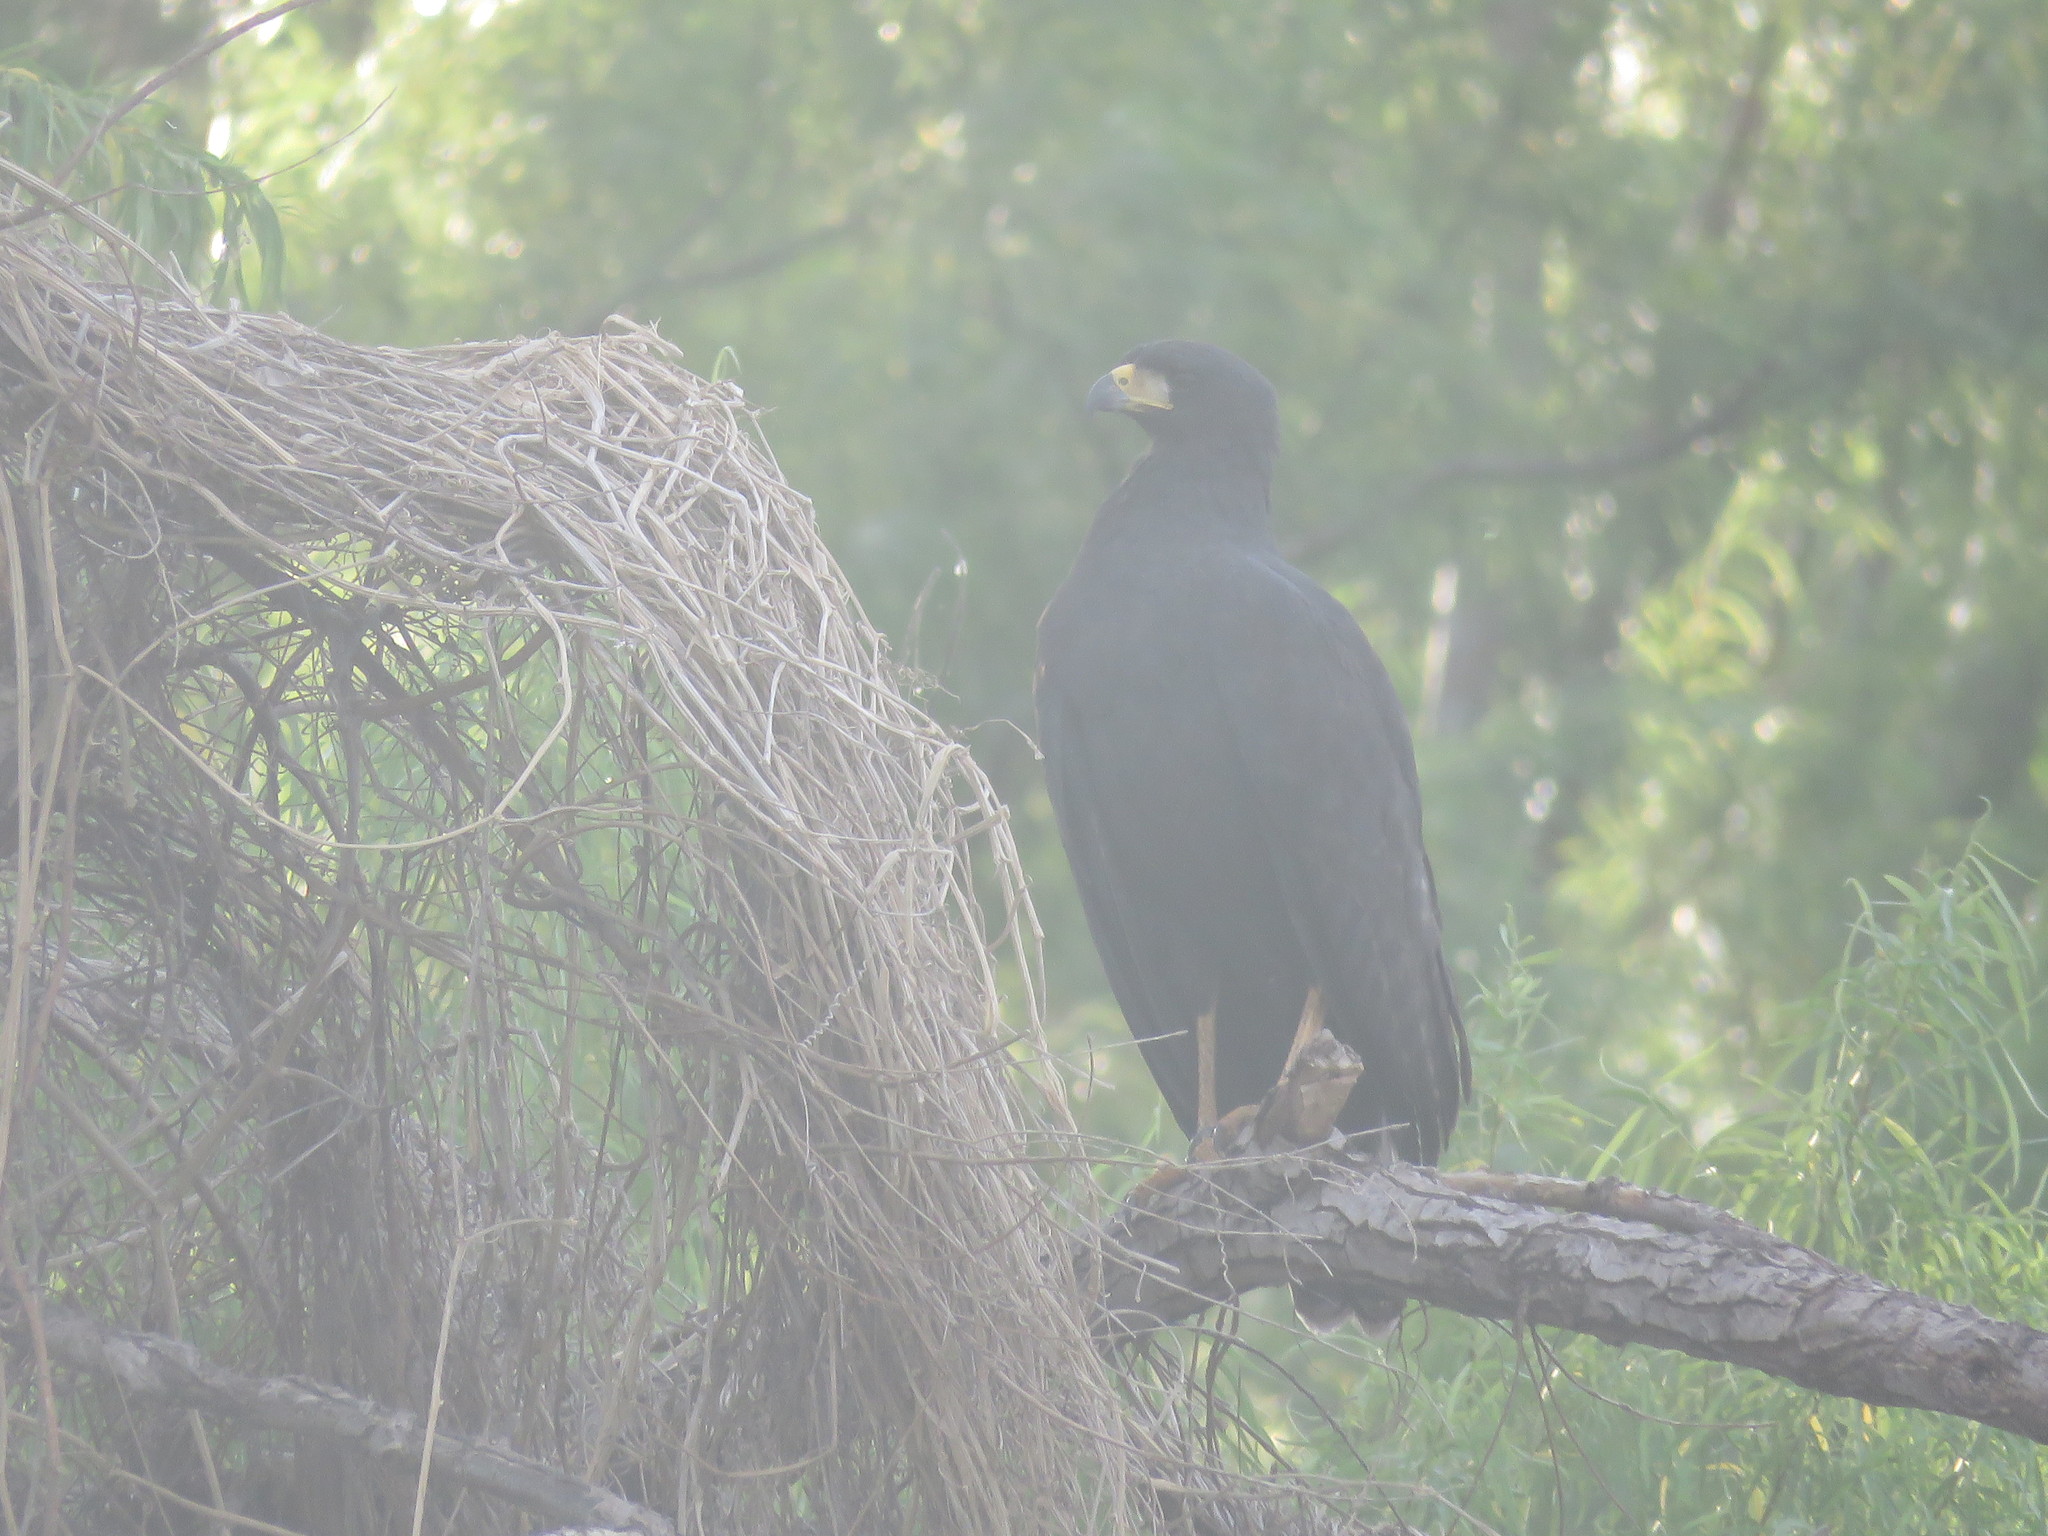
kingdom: Animalia
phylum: Chordata
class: Aves
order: Accipitriformes
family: Accipitridae
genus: Buteogallus
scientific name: Buteogallus urubitinga
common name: Great black hawk
